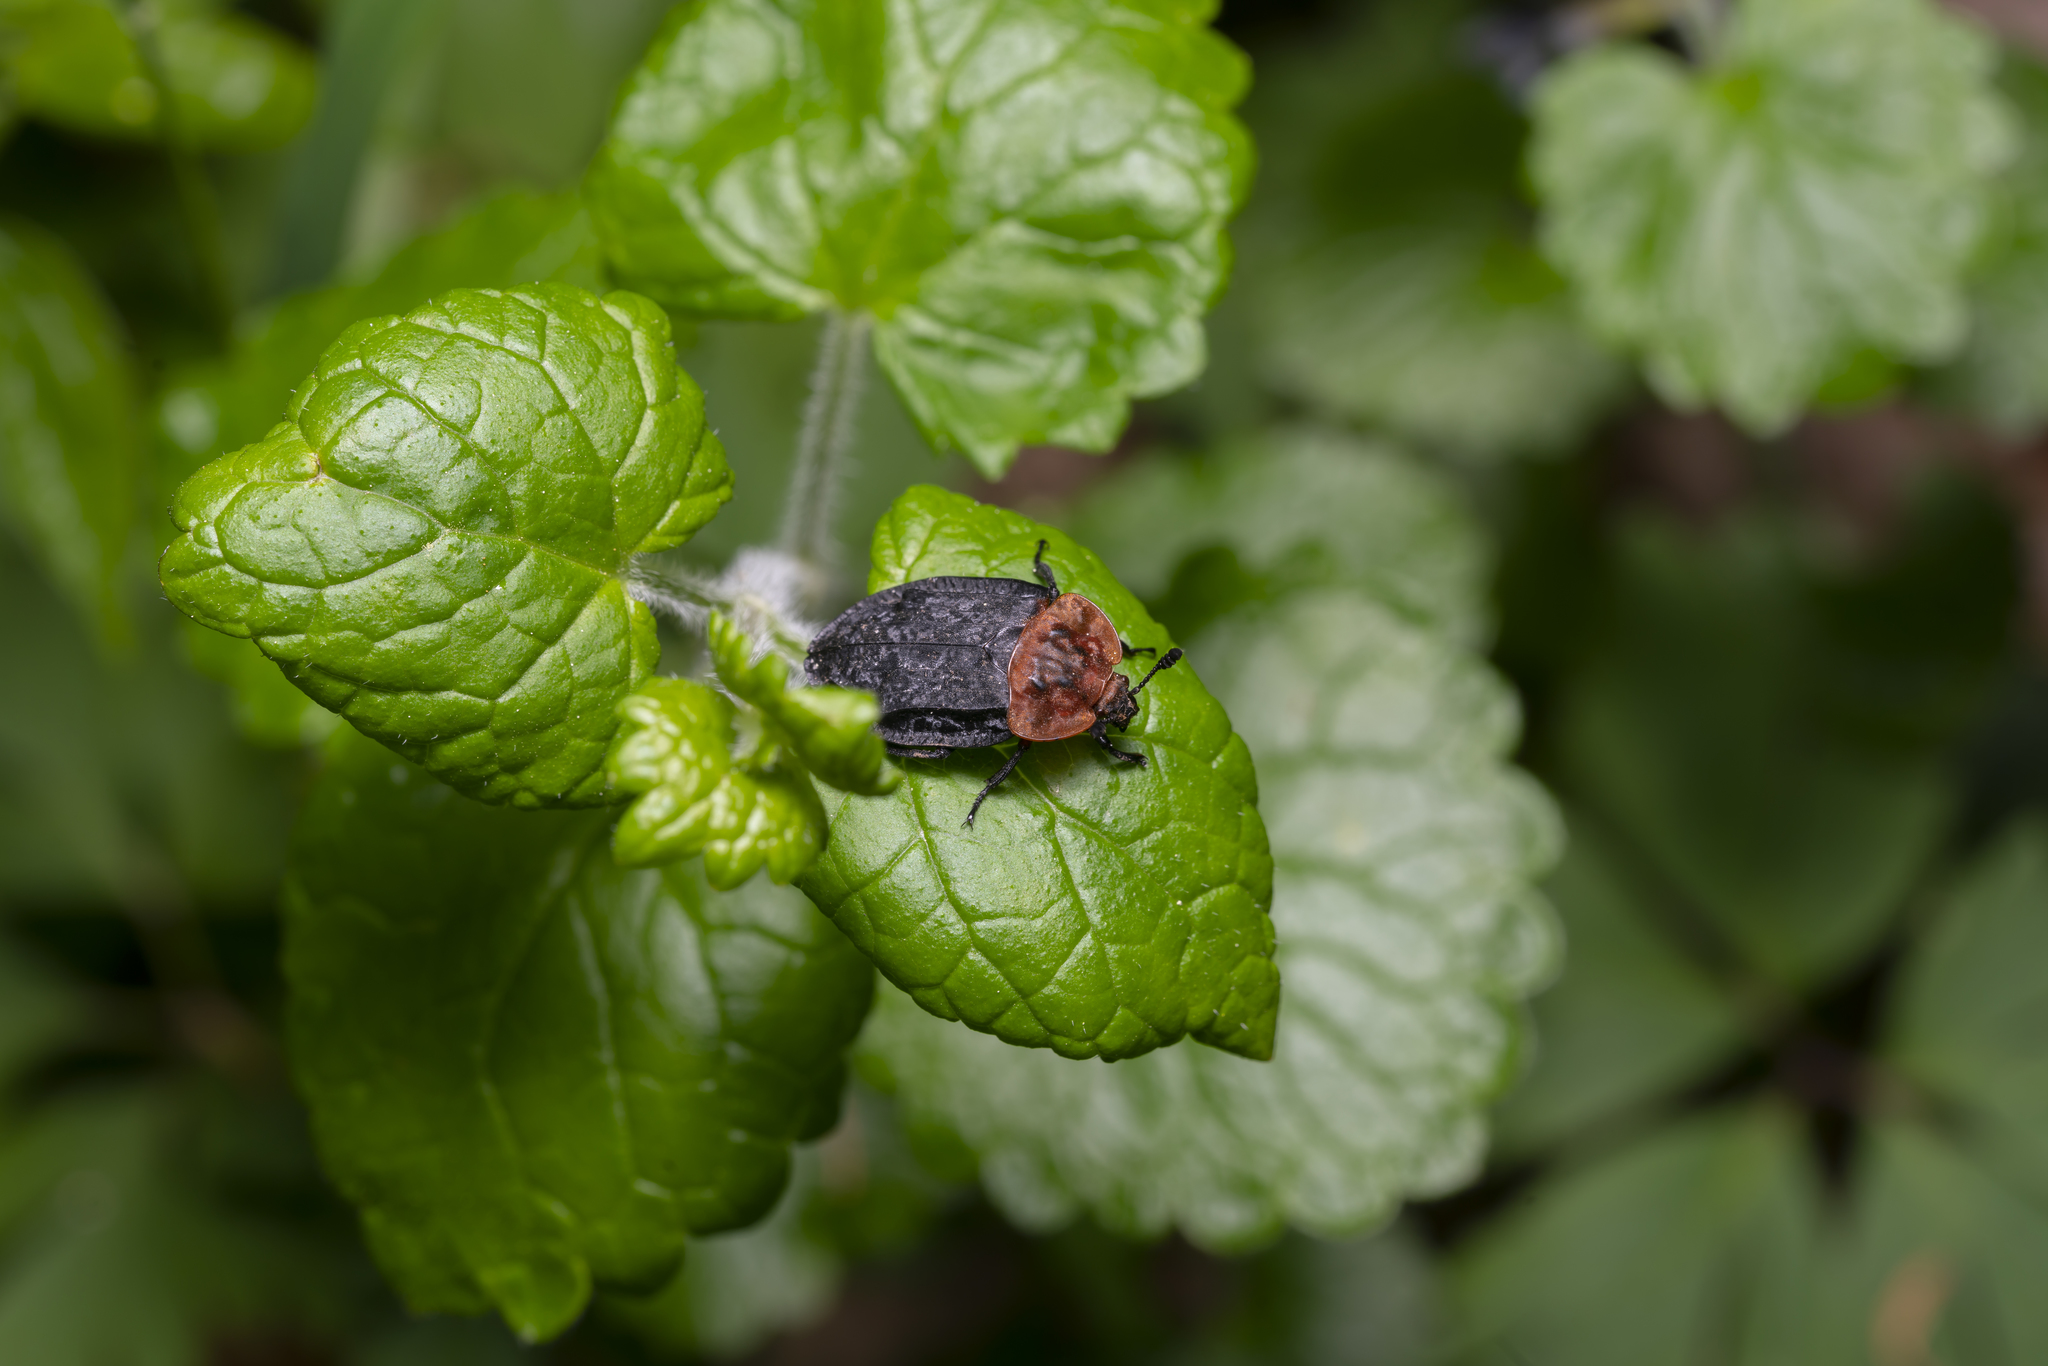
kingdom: Animalia
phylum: Arthropoda
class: Insecta
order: Coleoptera
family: Staphylinidae
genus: Oiceoptoma
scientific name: Oiceoptoma thoracicum
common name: Red-breasted carrion beetle
